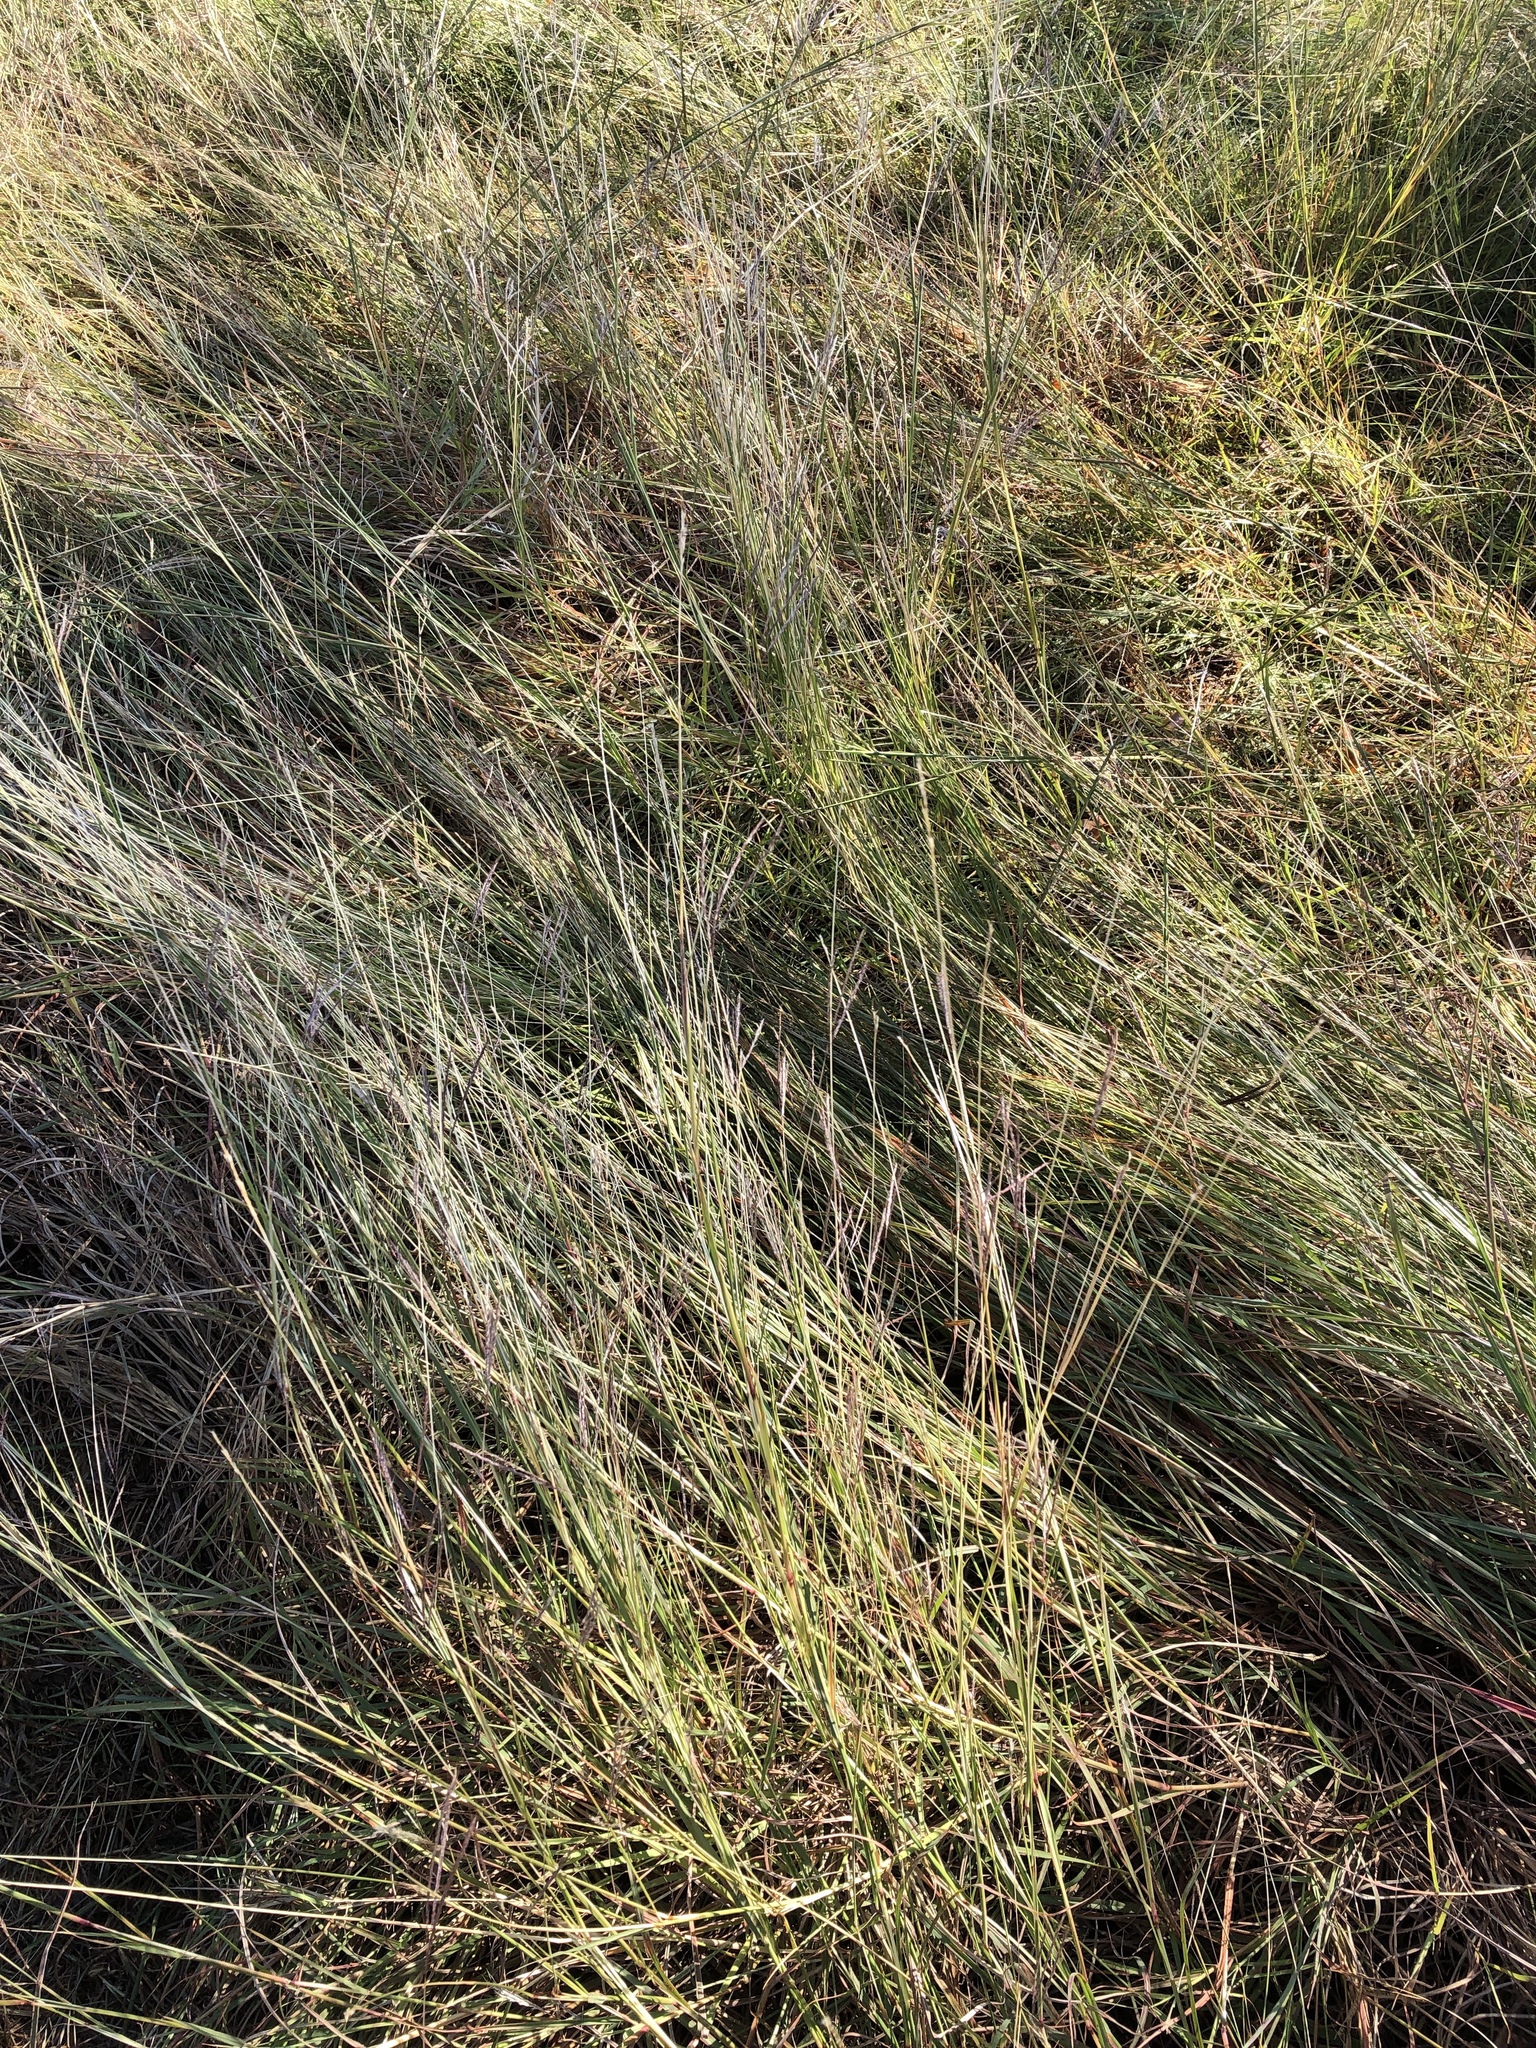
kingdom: Plantae
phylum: Tracheophyta
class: Liliopsida
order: Poales
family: Poaceae
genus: Bothriochloa
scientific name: Bothriochloa ischaemum
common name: Yellow bluestem
